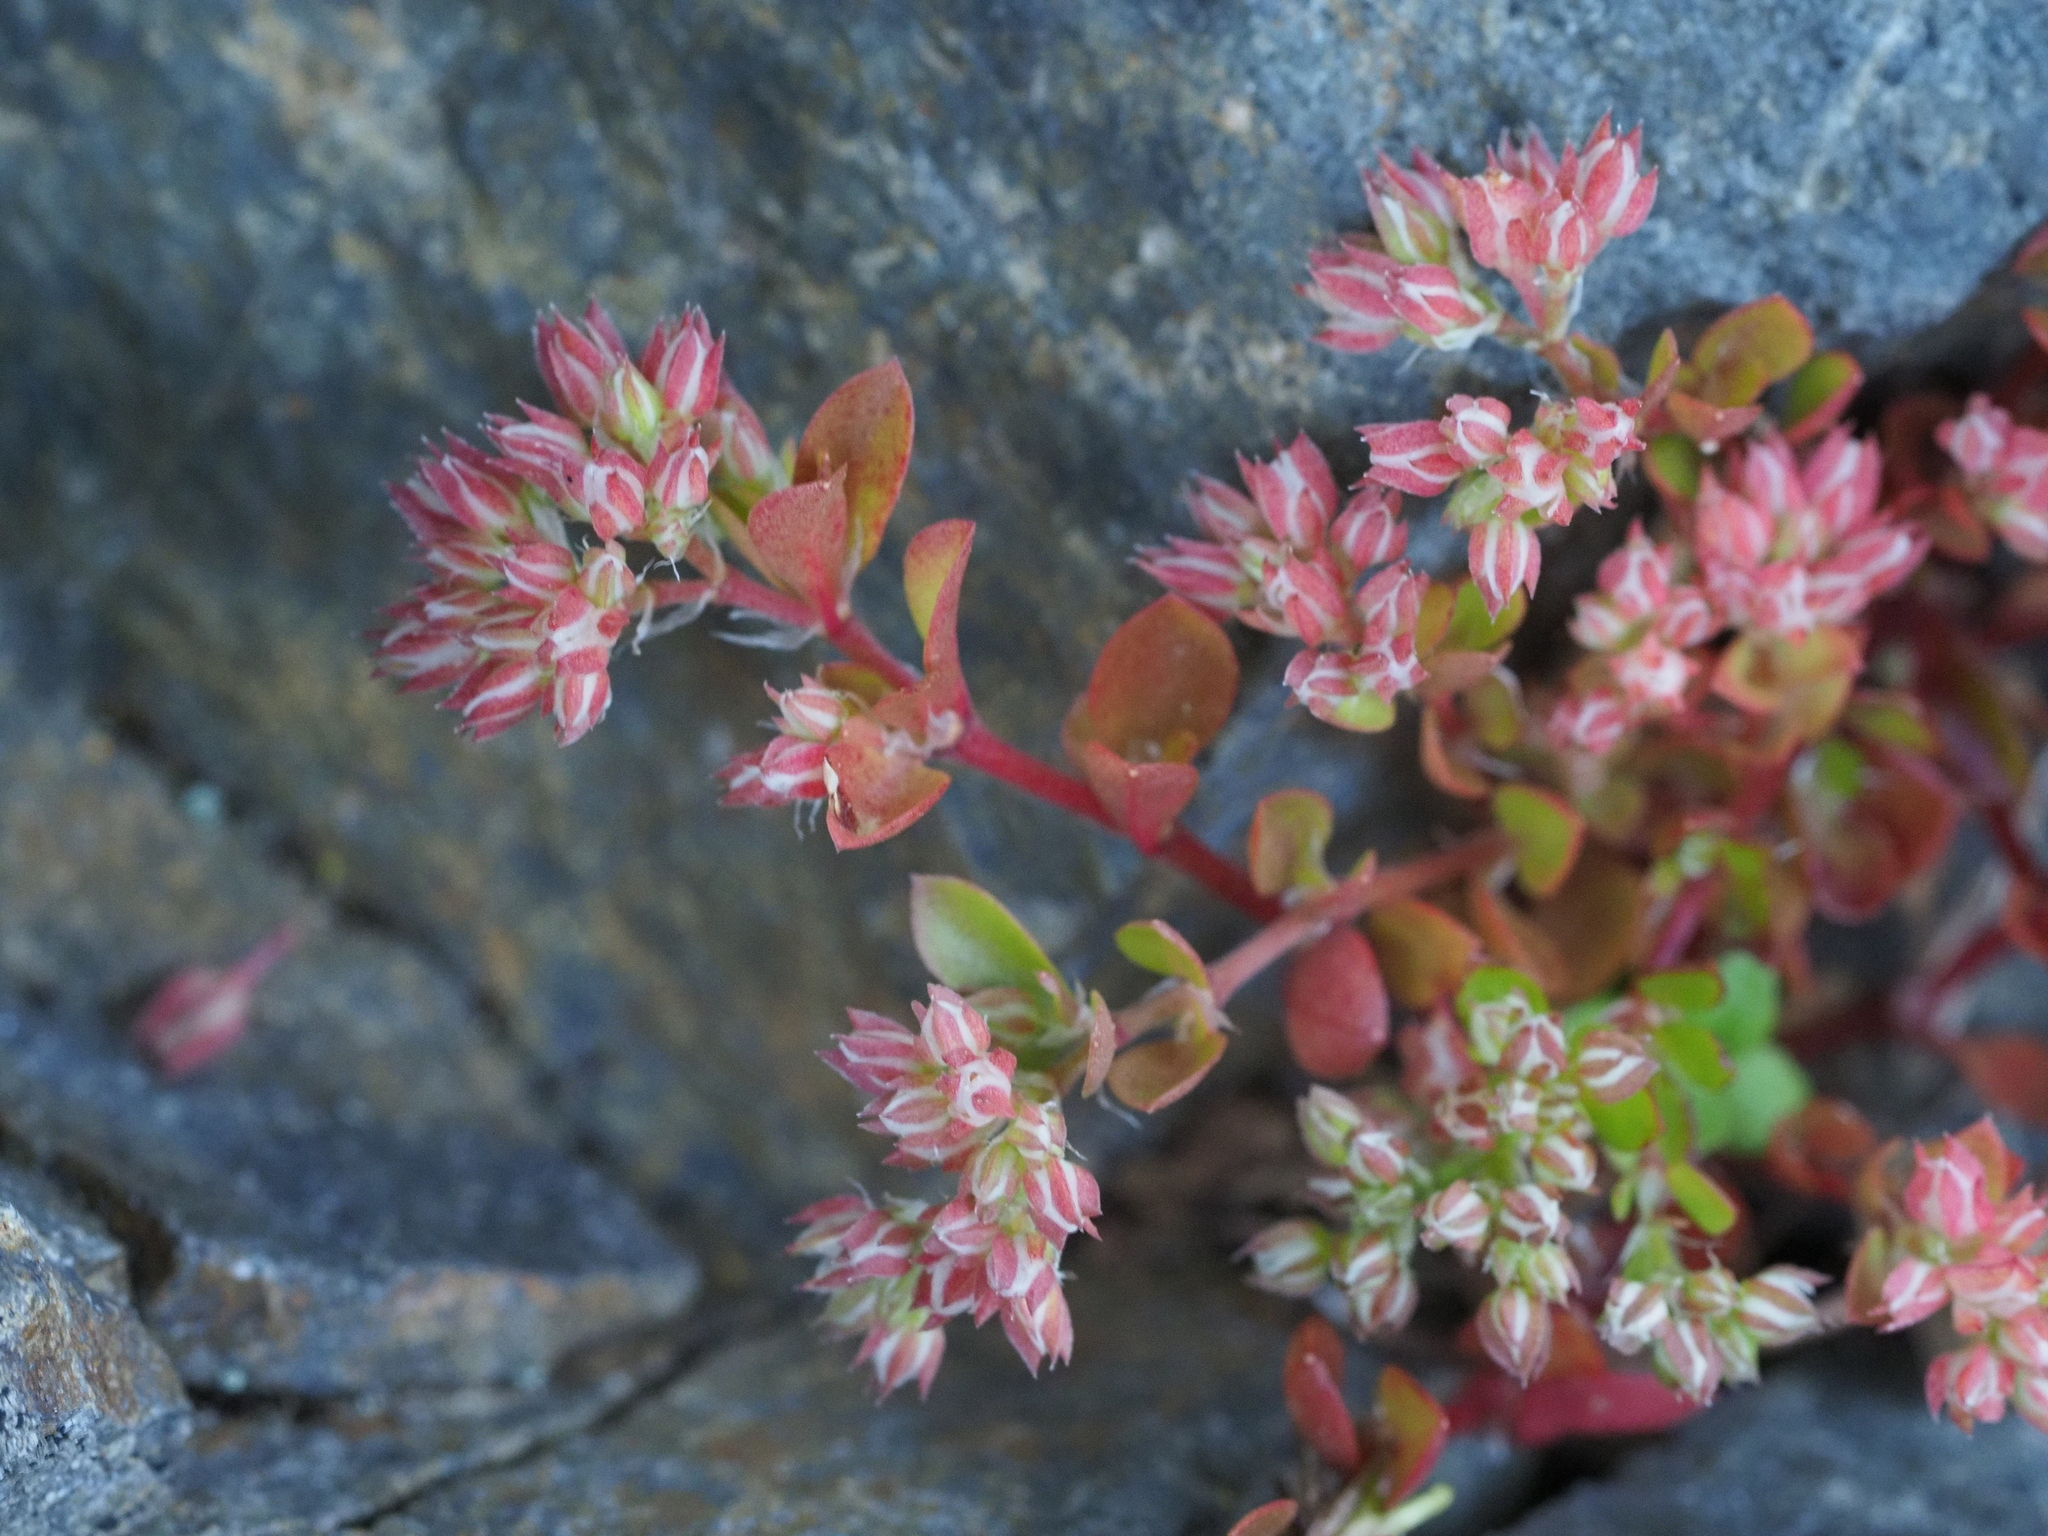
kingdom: Plantae
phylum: Tracheophyta
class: Magnoliopsida
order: Caryophyllales
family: Caryophyllaceae
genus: Polycarpon
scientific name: Polycarpon tetraphyllum
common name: Four-leaved all-seed
